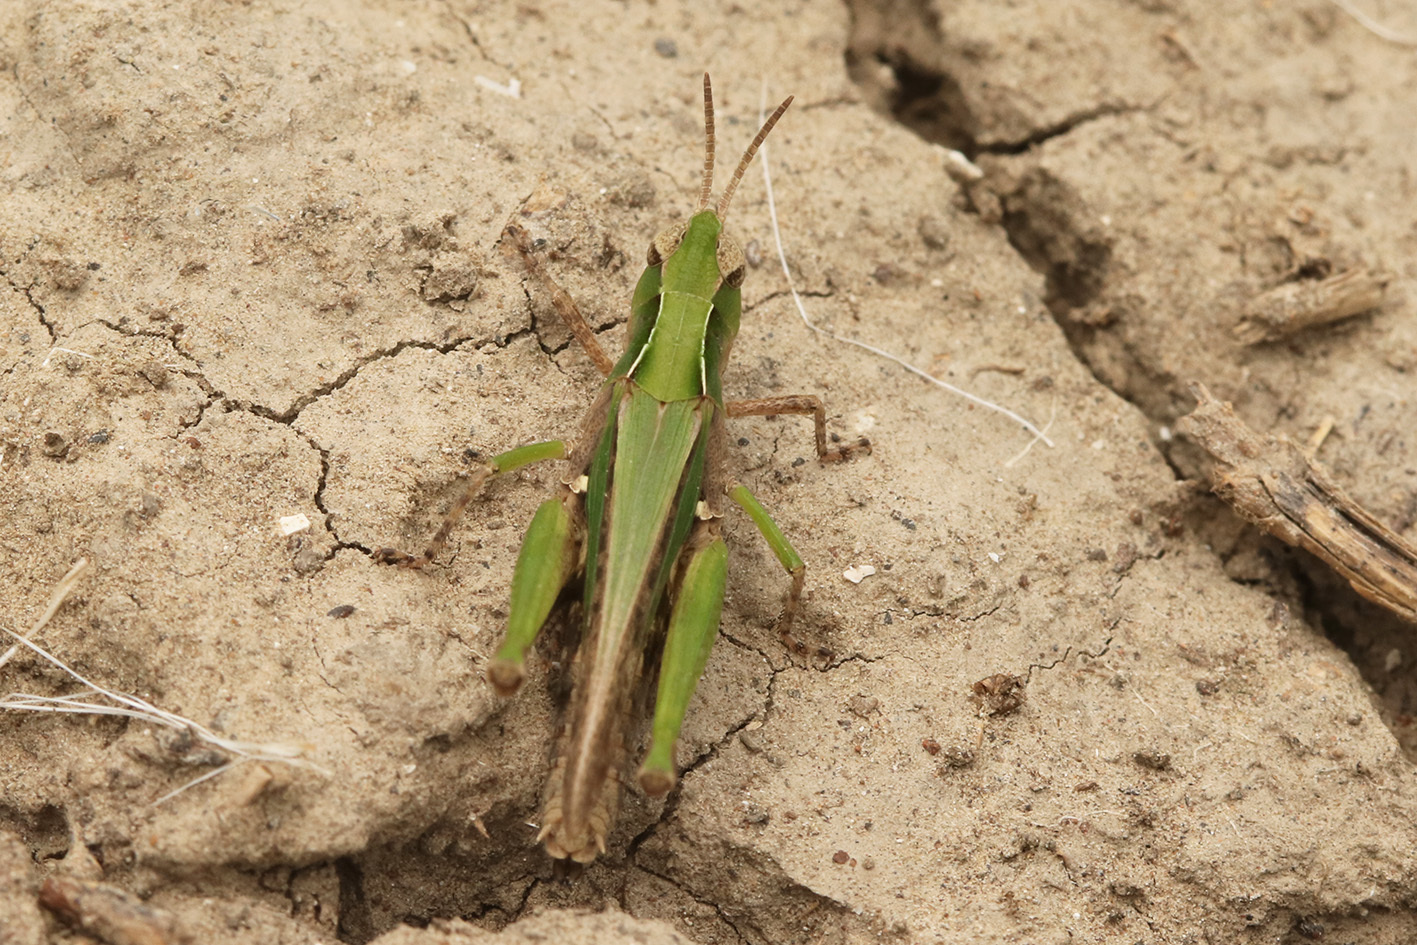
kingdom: Animalia
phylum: Arthropoda
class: Insecta
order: Orthoptera
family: Acrididae
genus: Orphulella
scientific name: Orphulella punctata
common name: Slant-faced grasshopper
